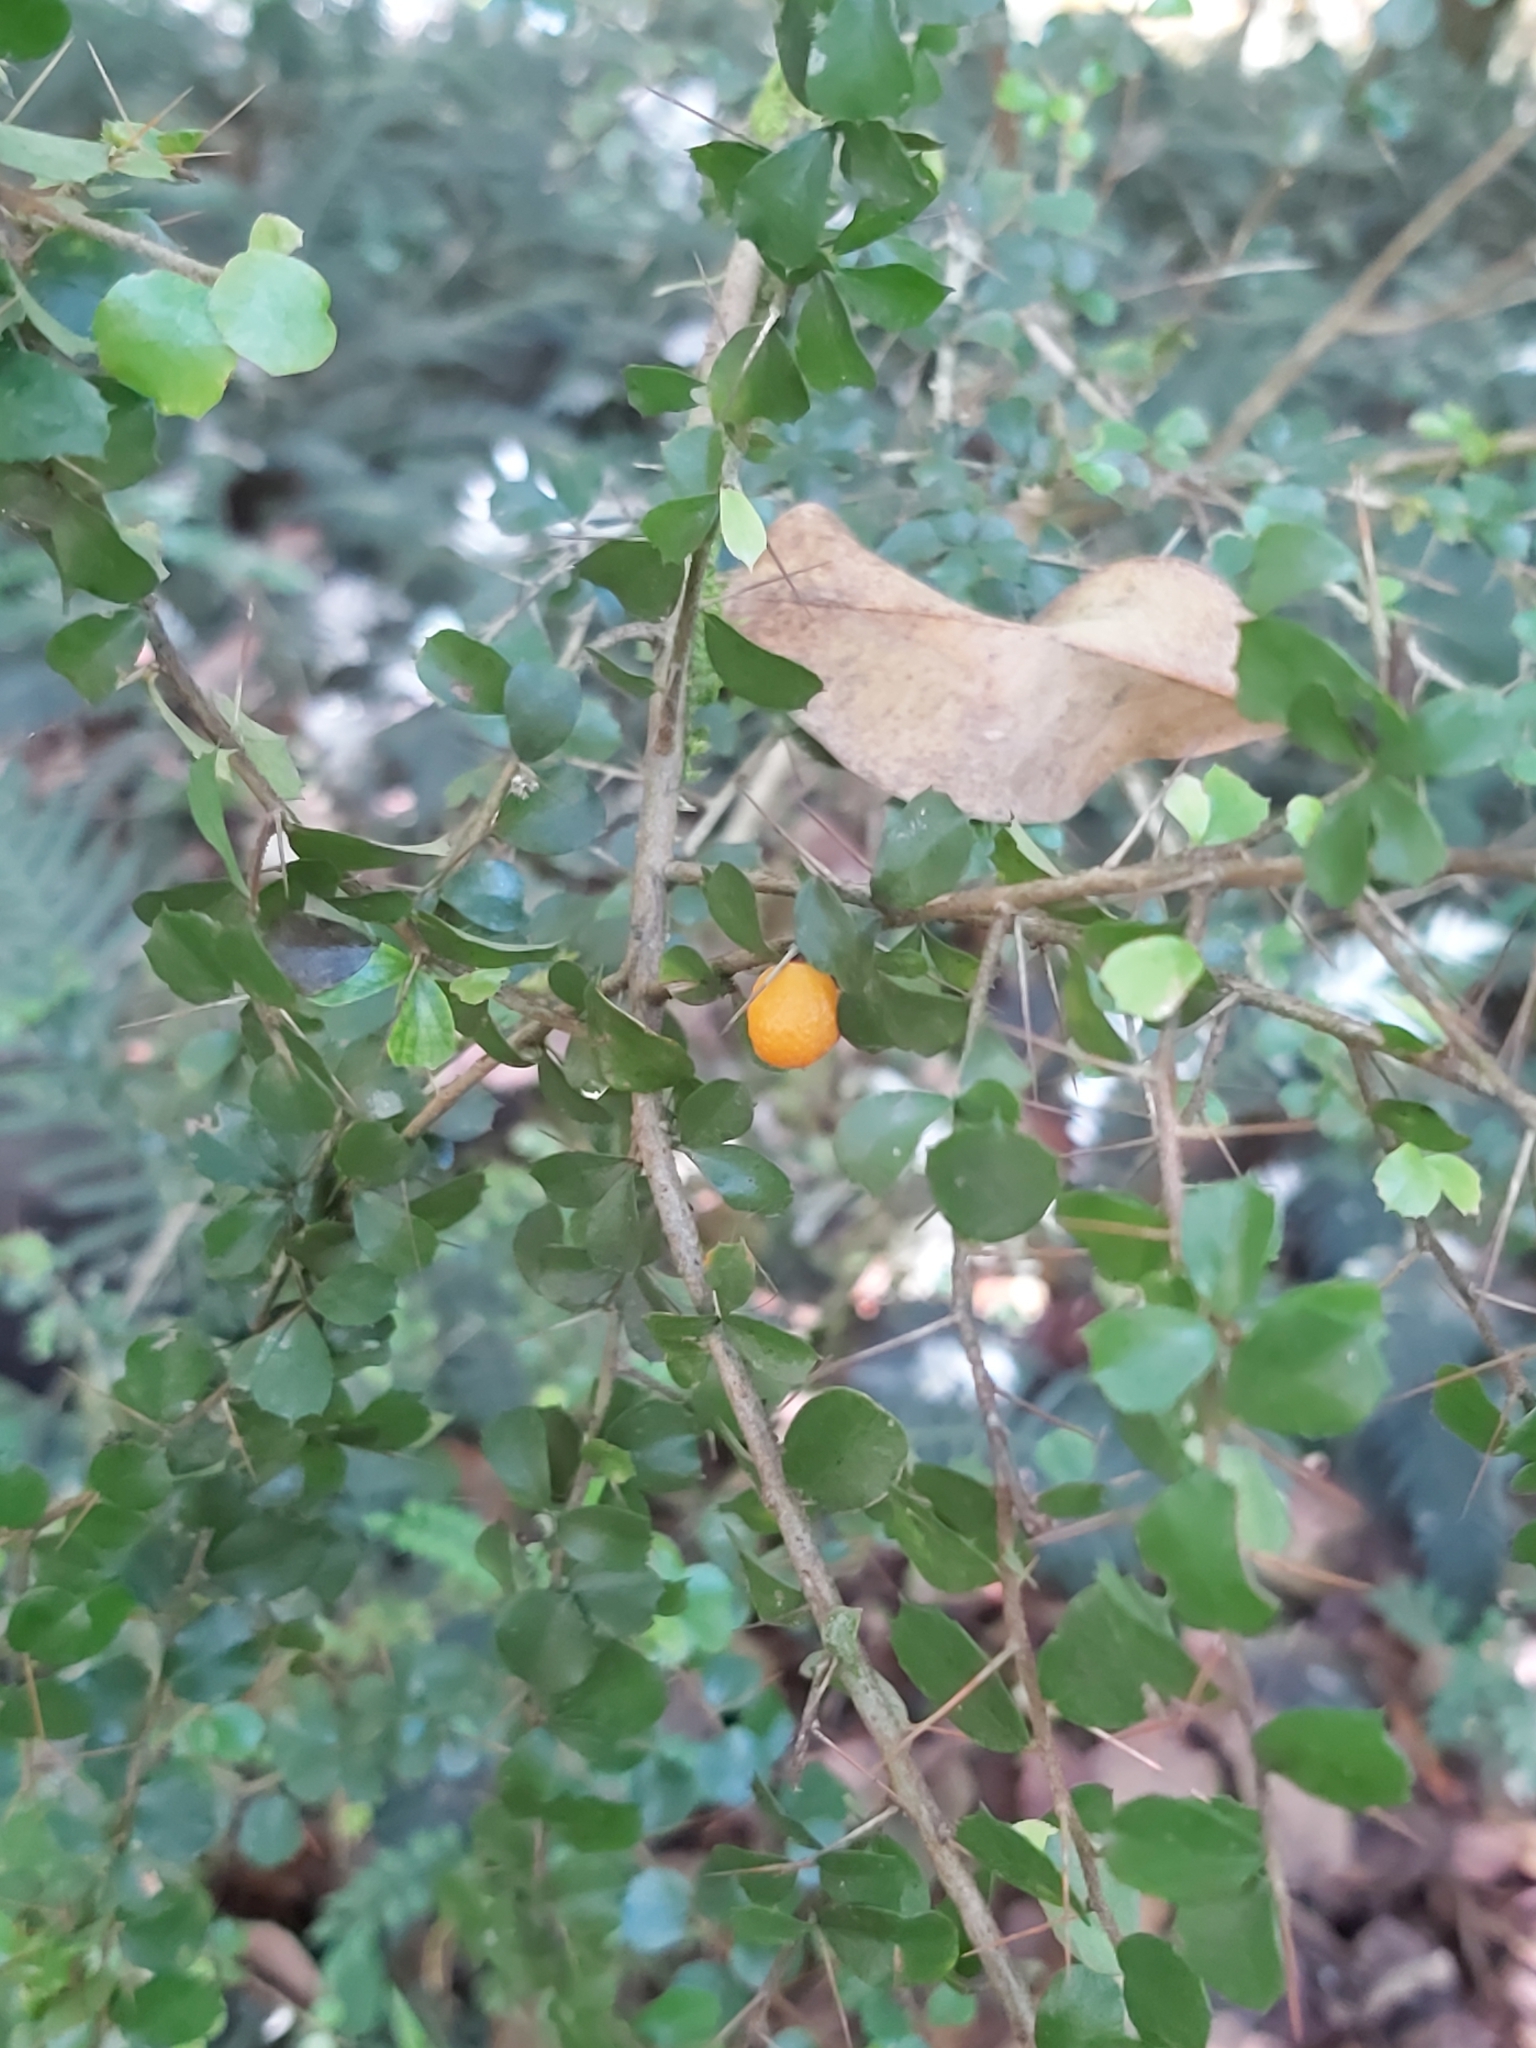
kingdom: Plantae
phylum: Tracheophyta
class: Magnoliopsida
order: Apiales
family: Pittosporaceae
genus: Pittosporum
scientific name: Pittosporum multiflorum
